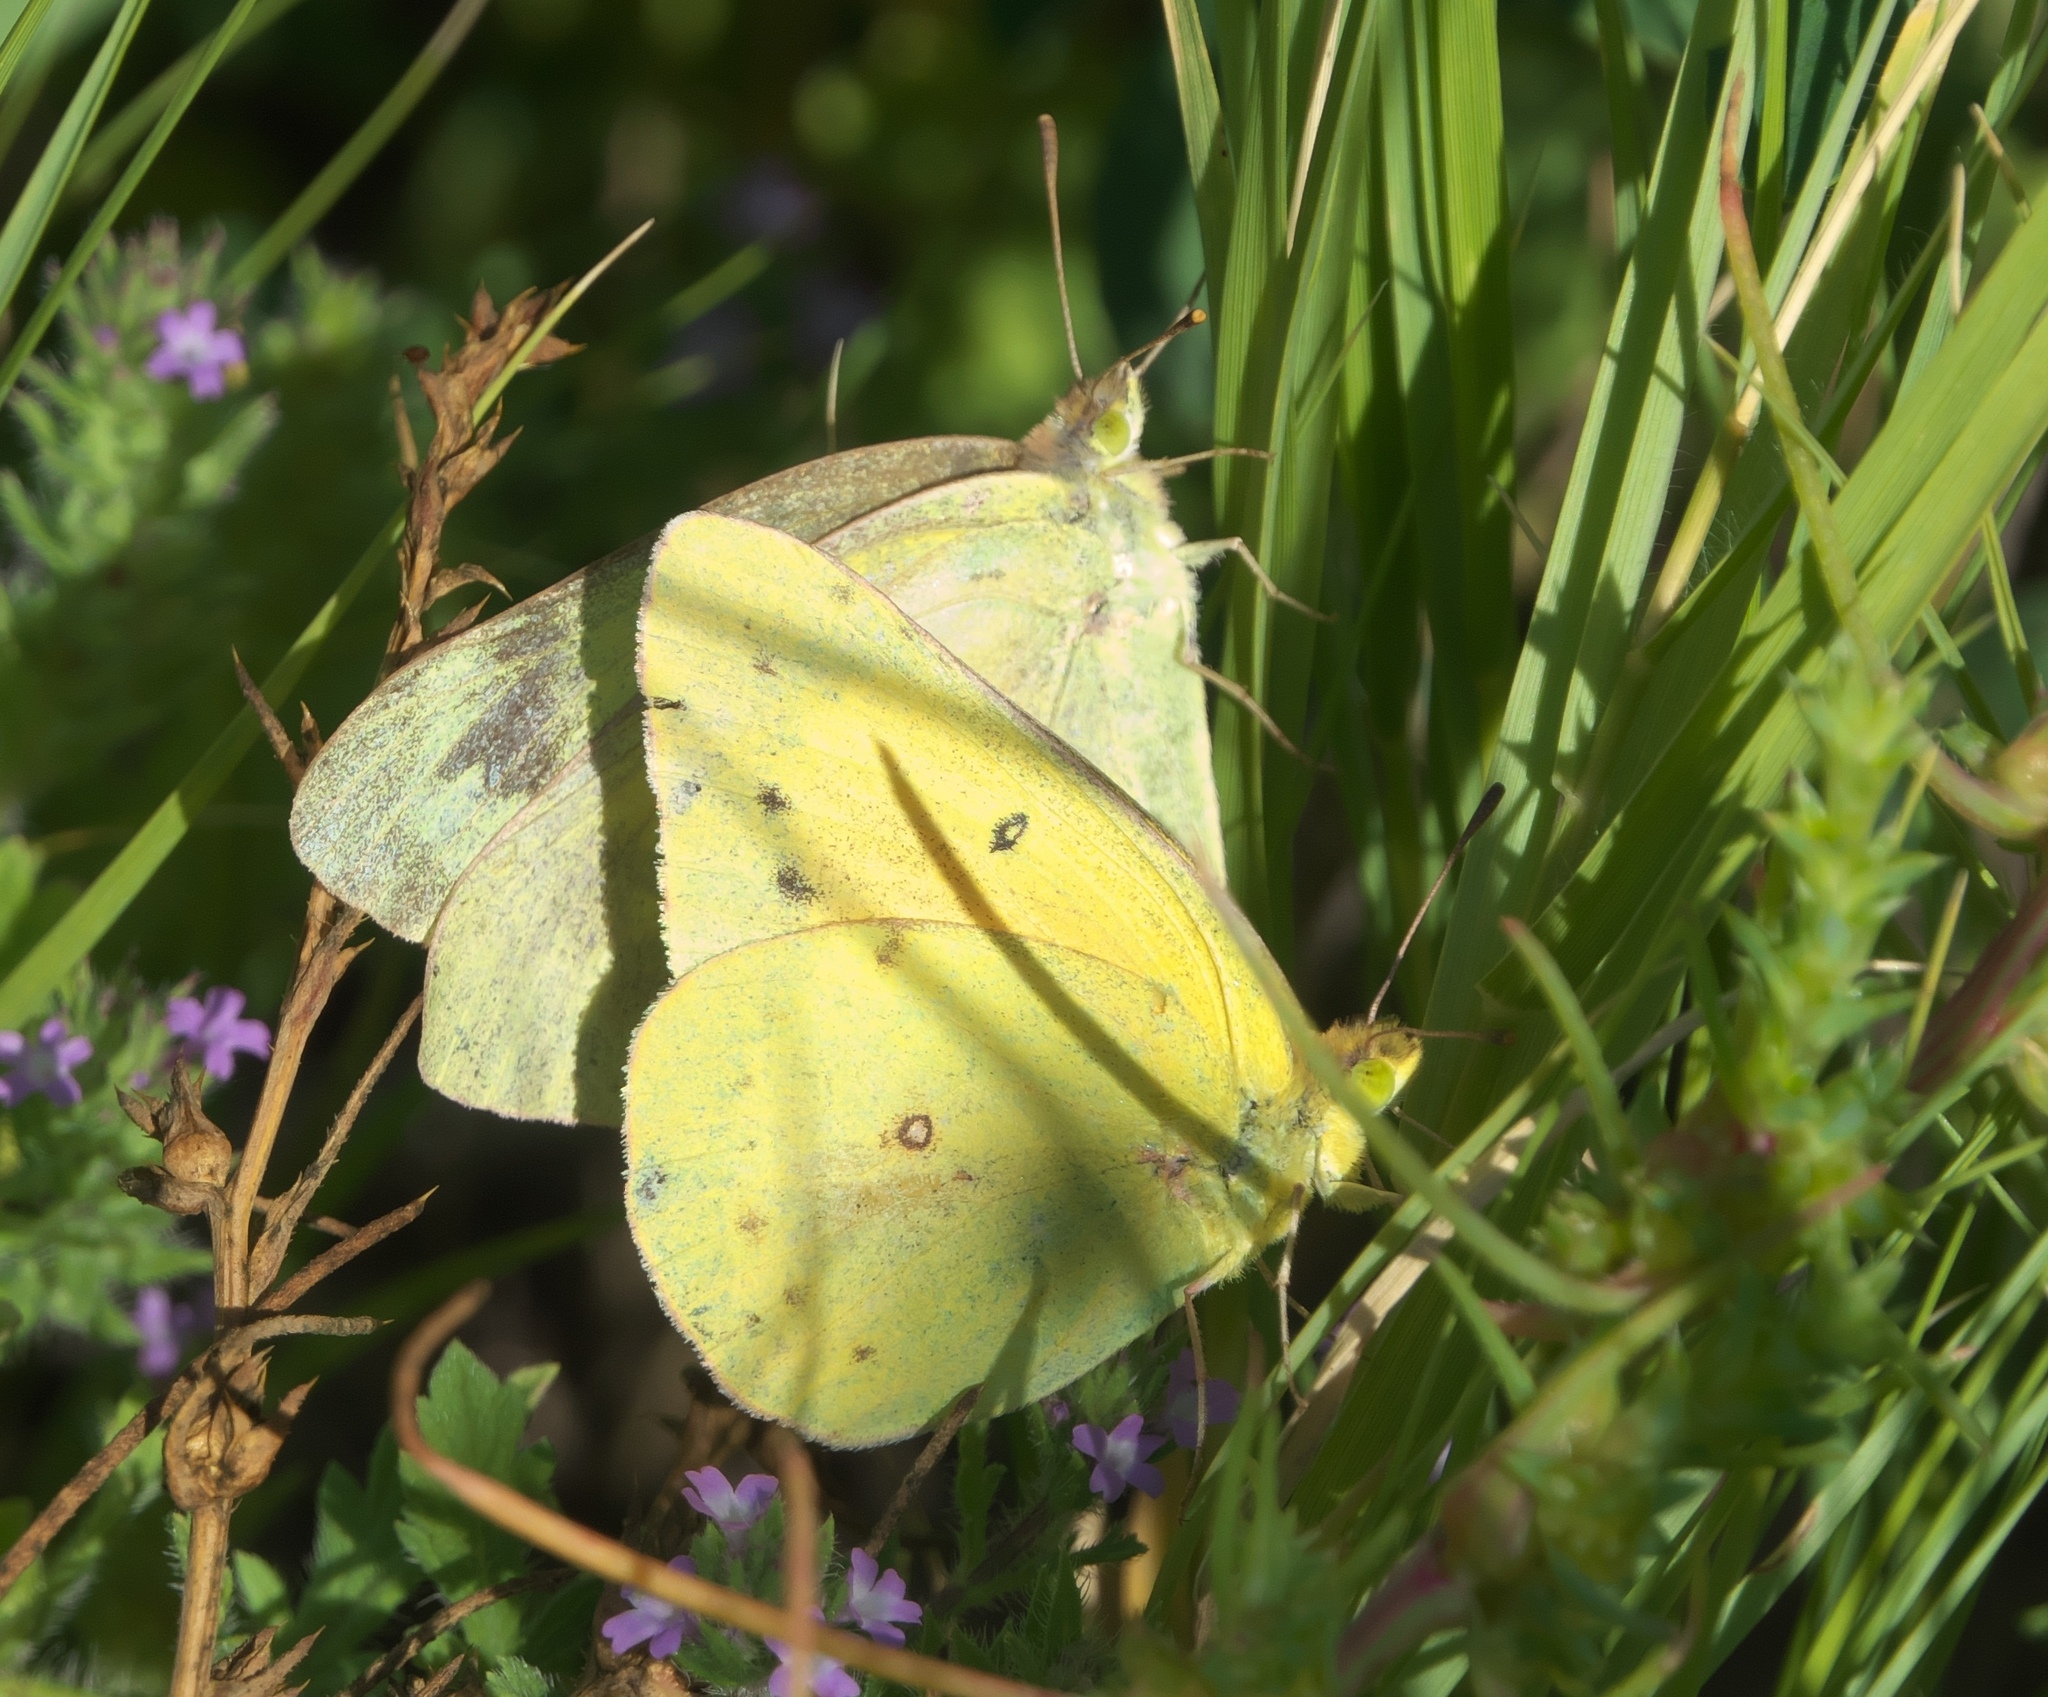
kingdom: Animalia
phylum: Arthropoda
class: Insecta
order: Lepidoptera
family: Pieridae
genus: Colias
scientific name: Colias eurytheme
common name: Alfalfa butterfly
